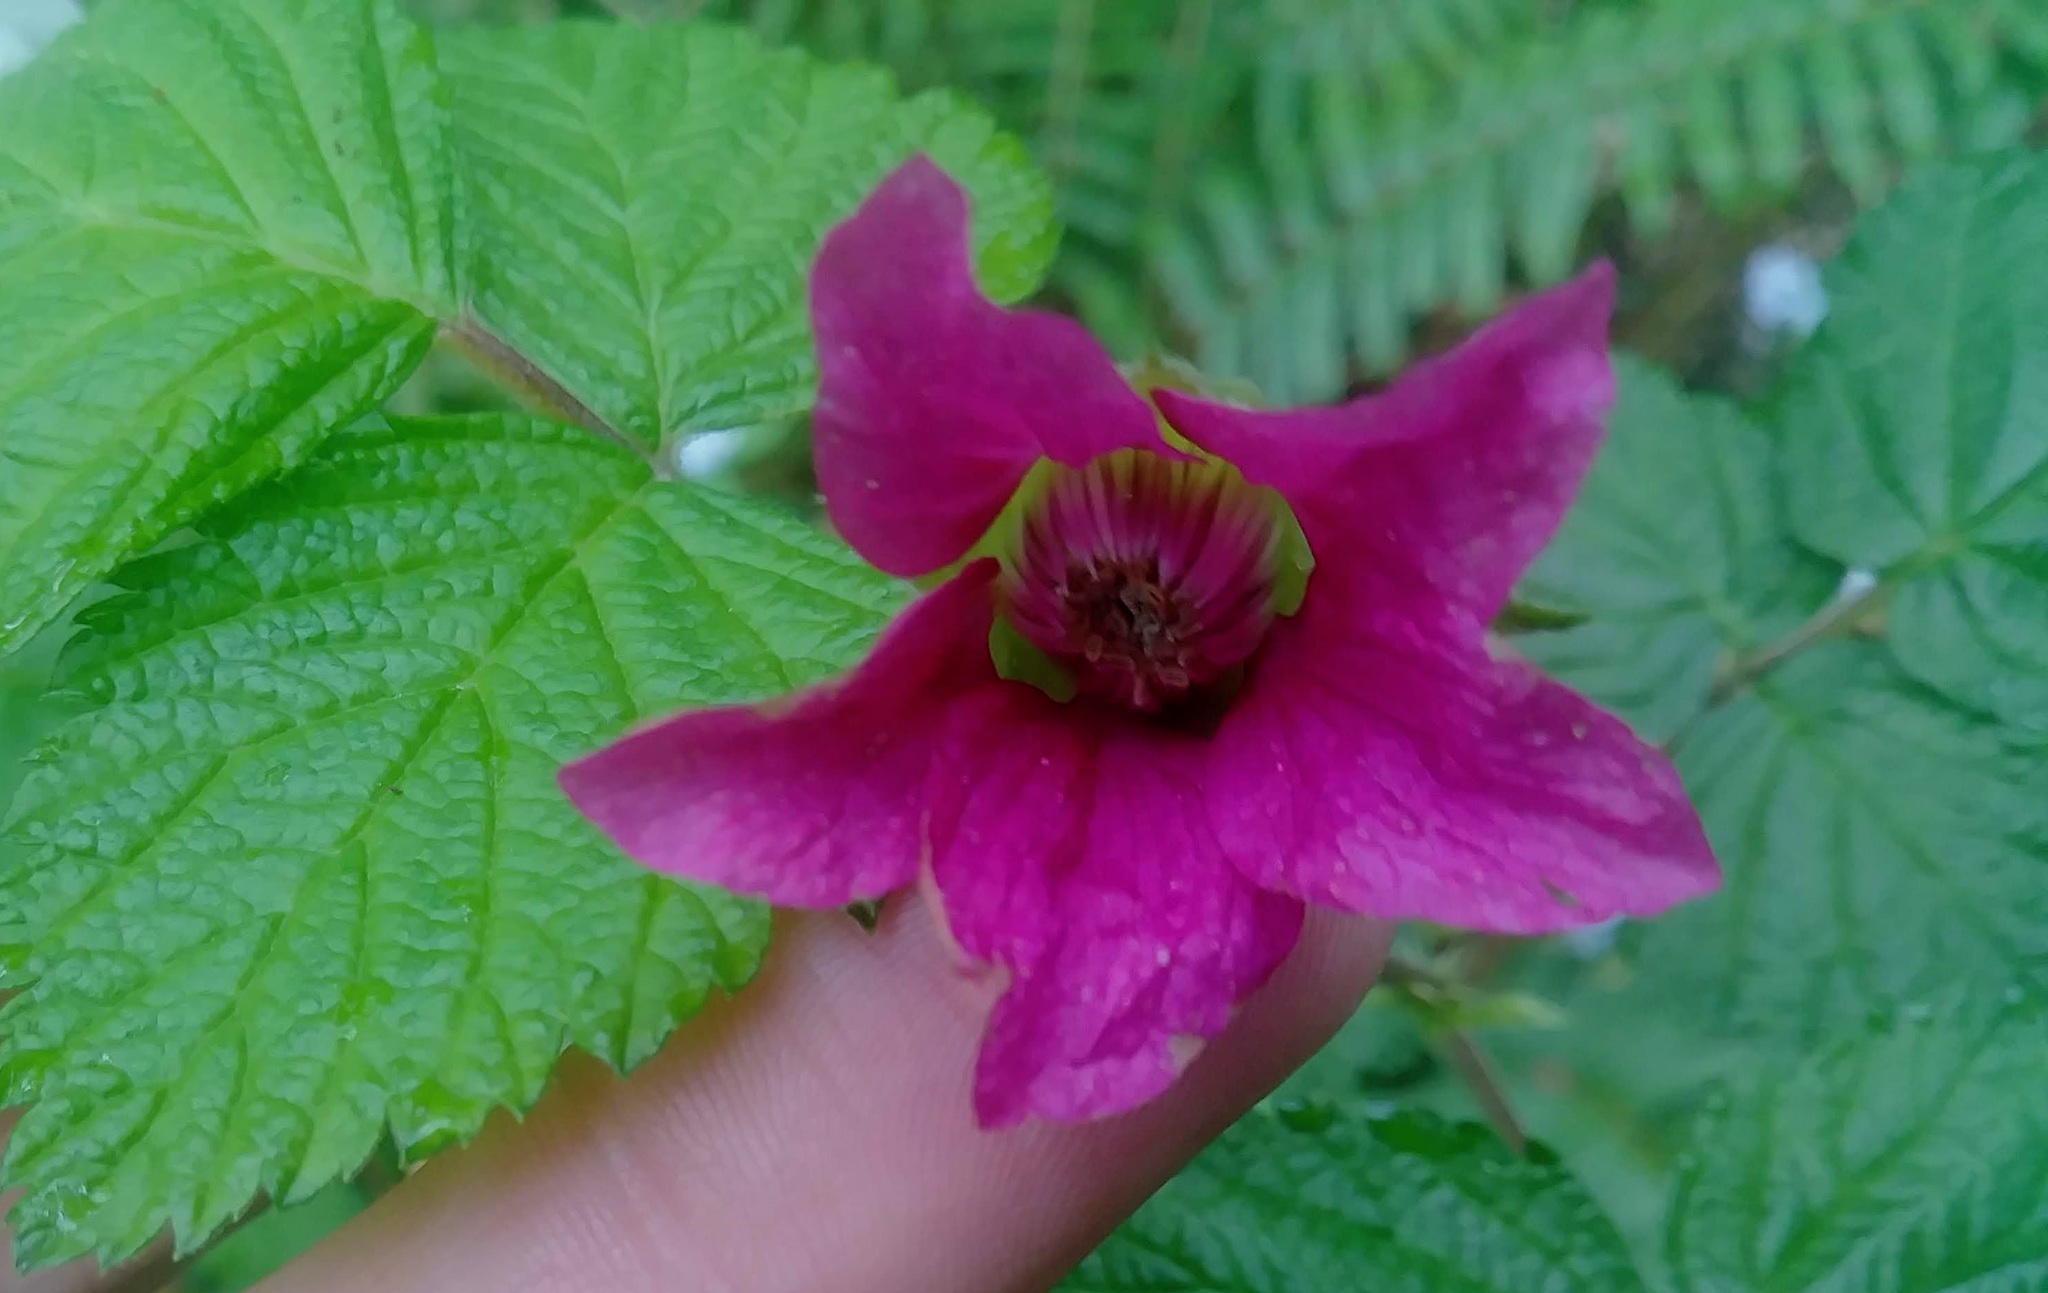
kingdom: Plantae
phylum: Tracheophyta
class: Magnoliopsida
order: Rosales
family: Rosaceae
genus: Rubus
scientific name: Rubus spectabilis
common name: Salmonberry
